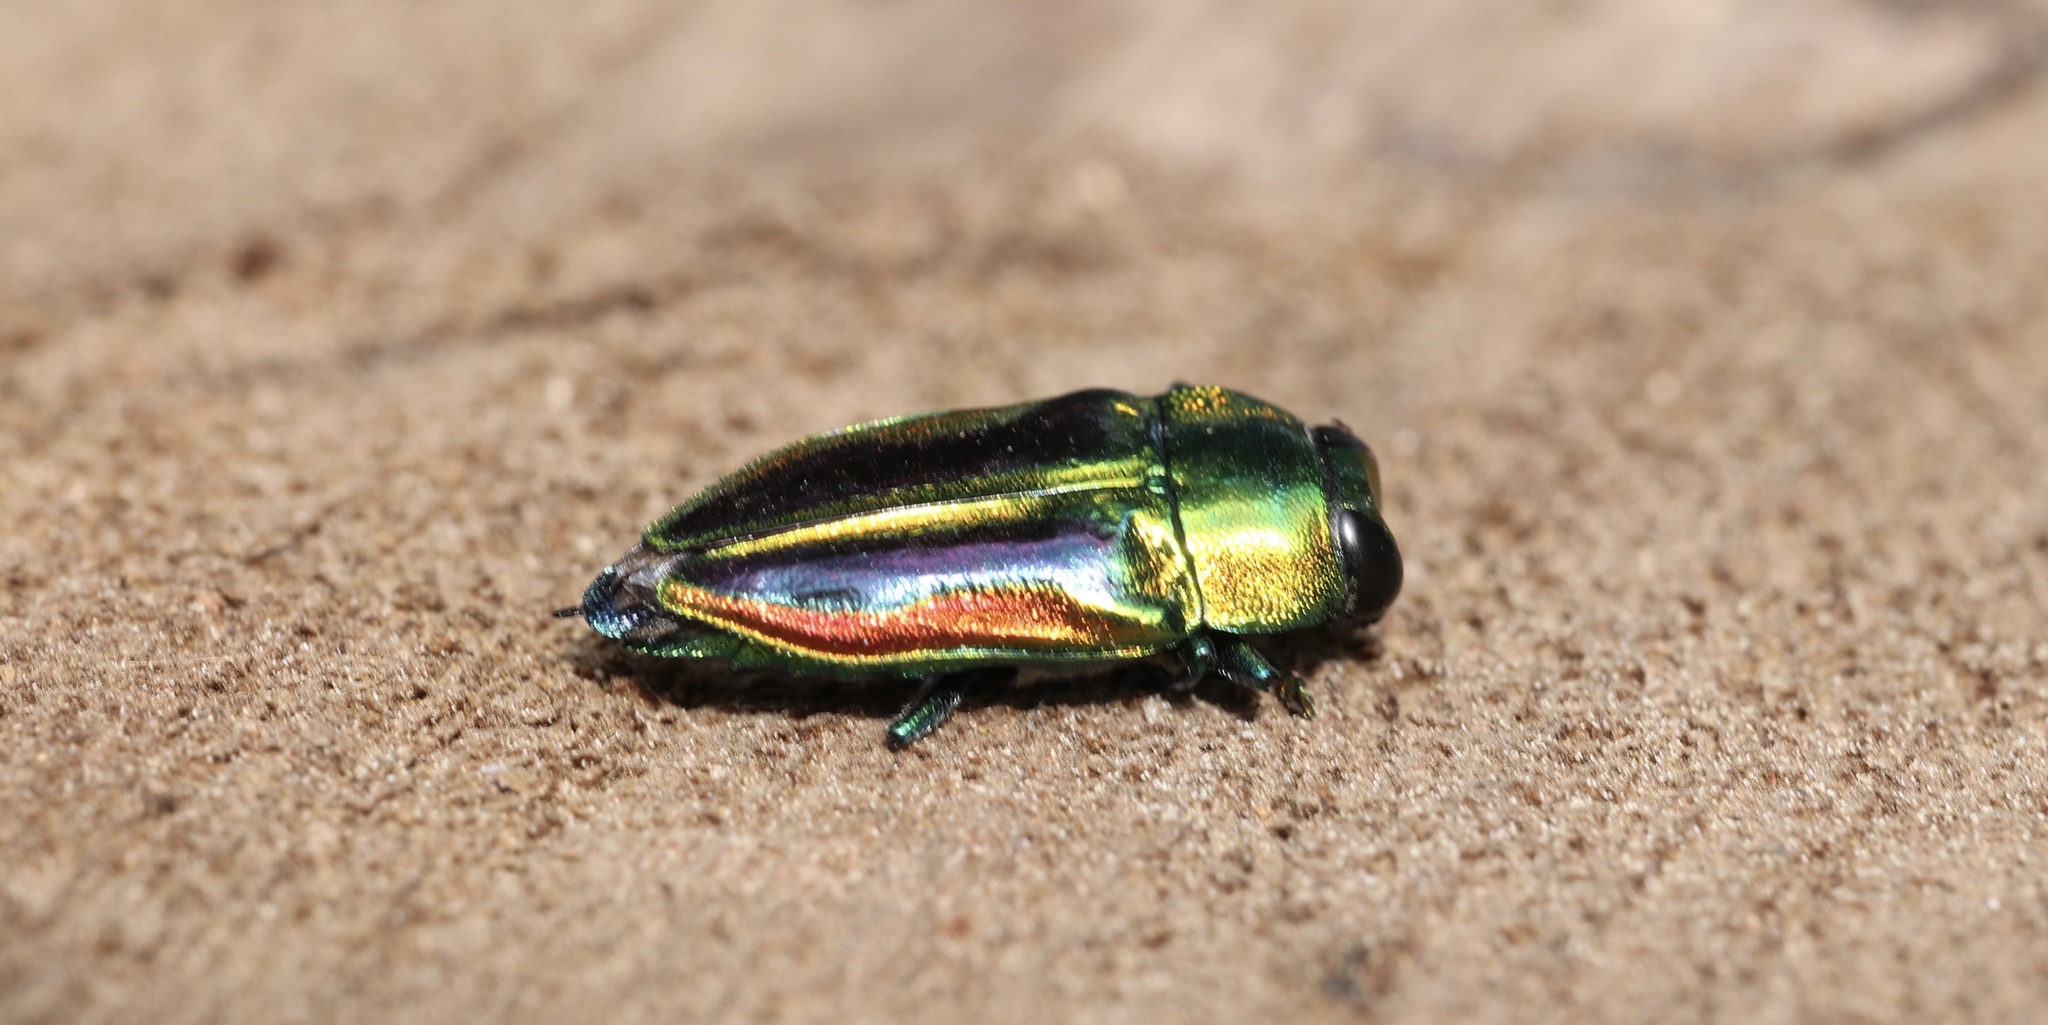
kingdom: Animalia
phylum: Arthropoda
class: Insecta
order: Coleoptera
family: Buprestidae
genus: Cylindrophora
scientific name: Cylindrophora
